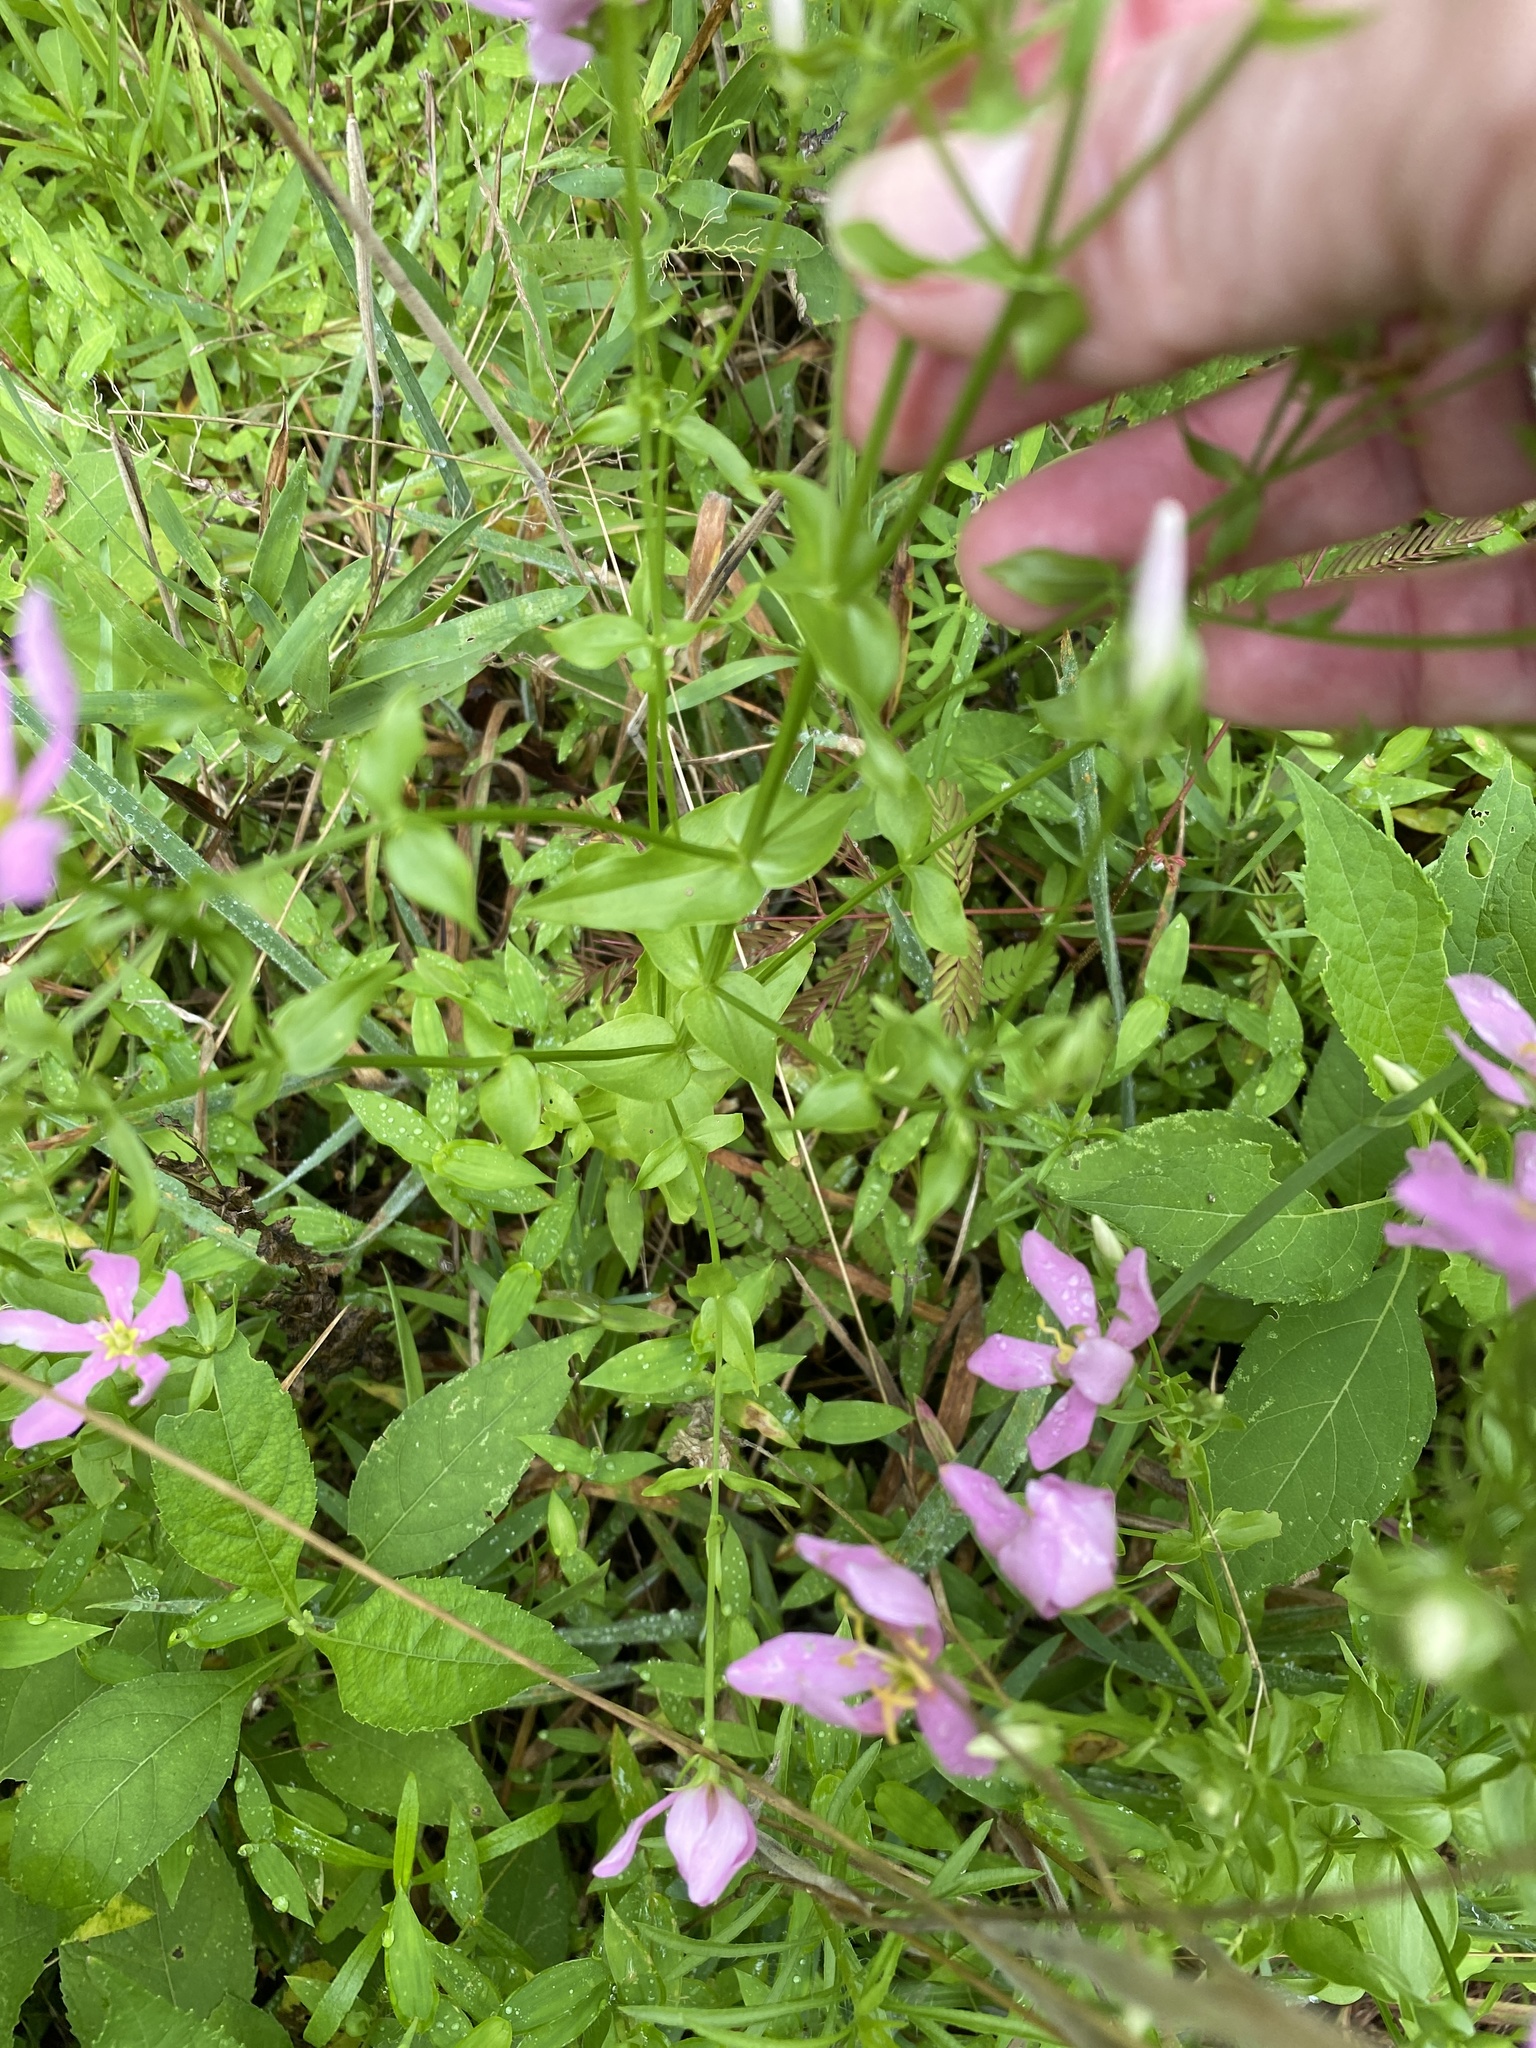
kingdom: Plantae
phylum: Tracheophyta
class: Magnoliopsida
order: Gentianales
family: Gentianaceae
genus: Sabatia
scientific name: Sabatia angularis
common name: Rose-pink
